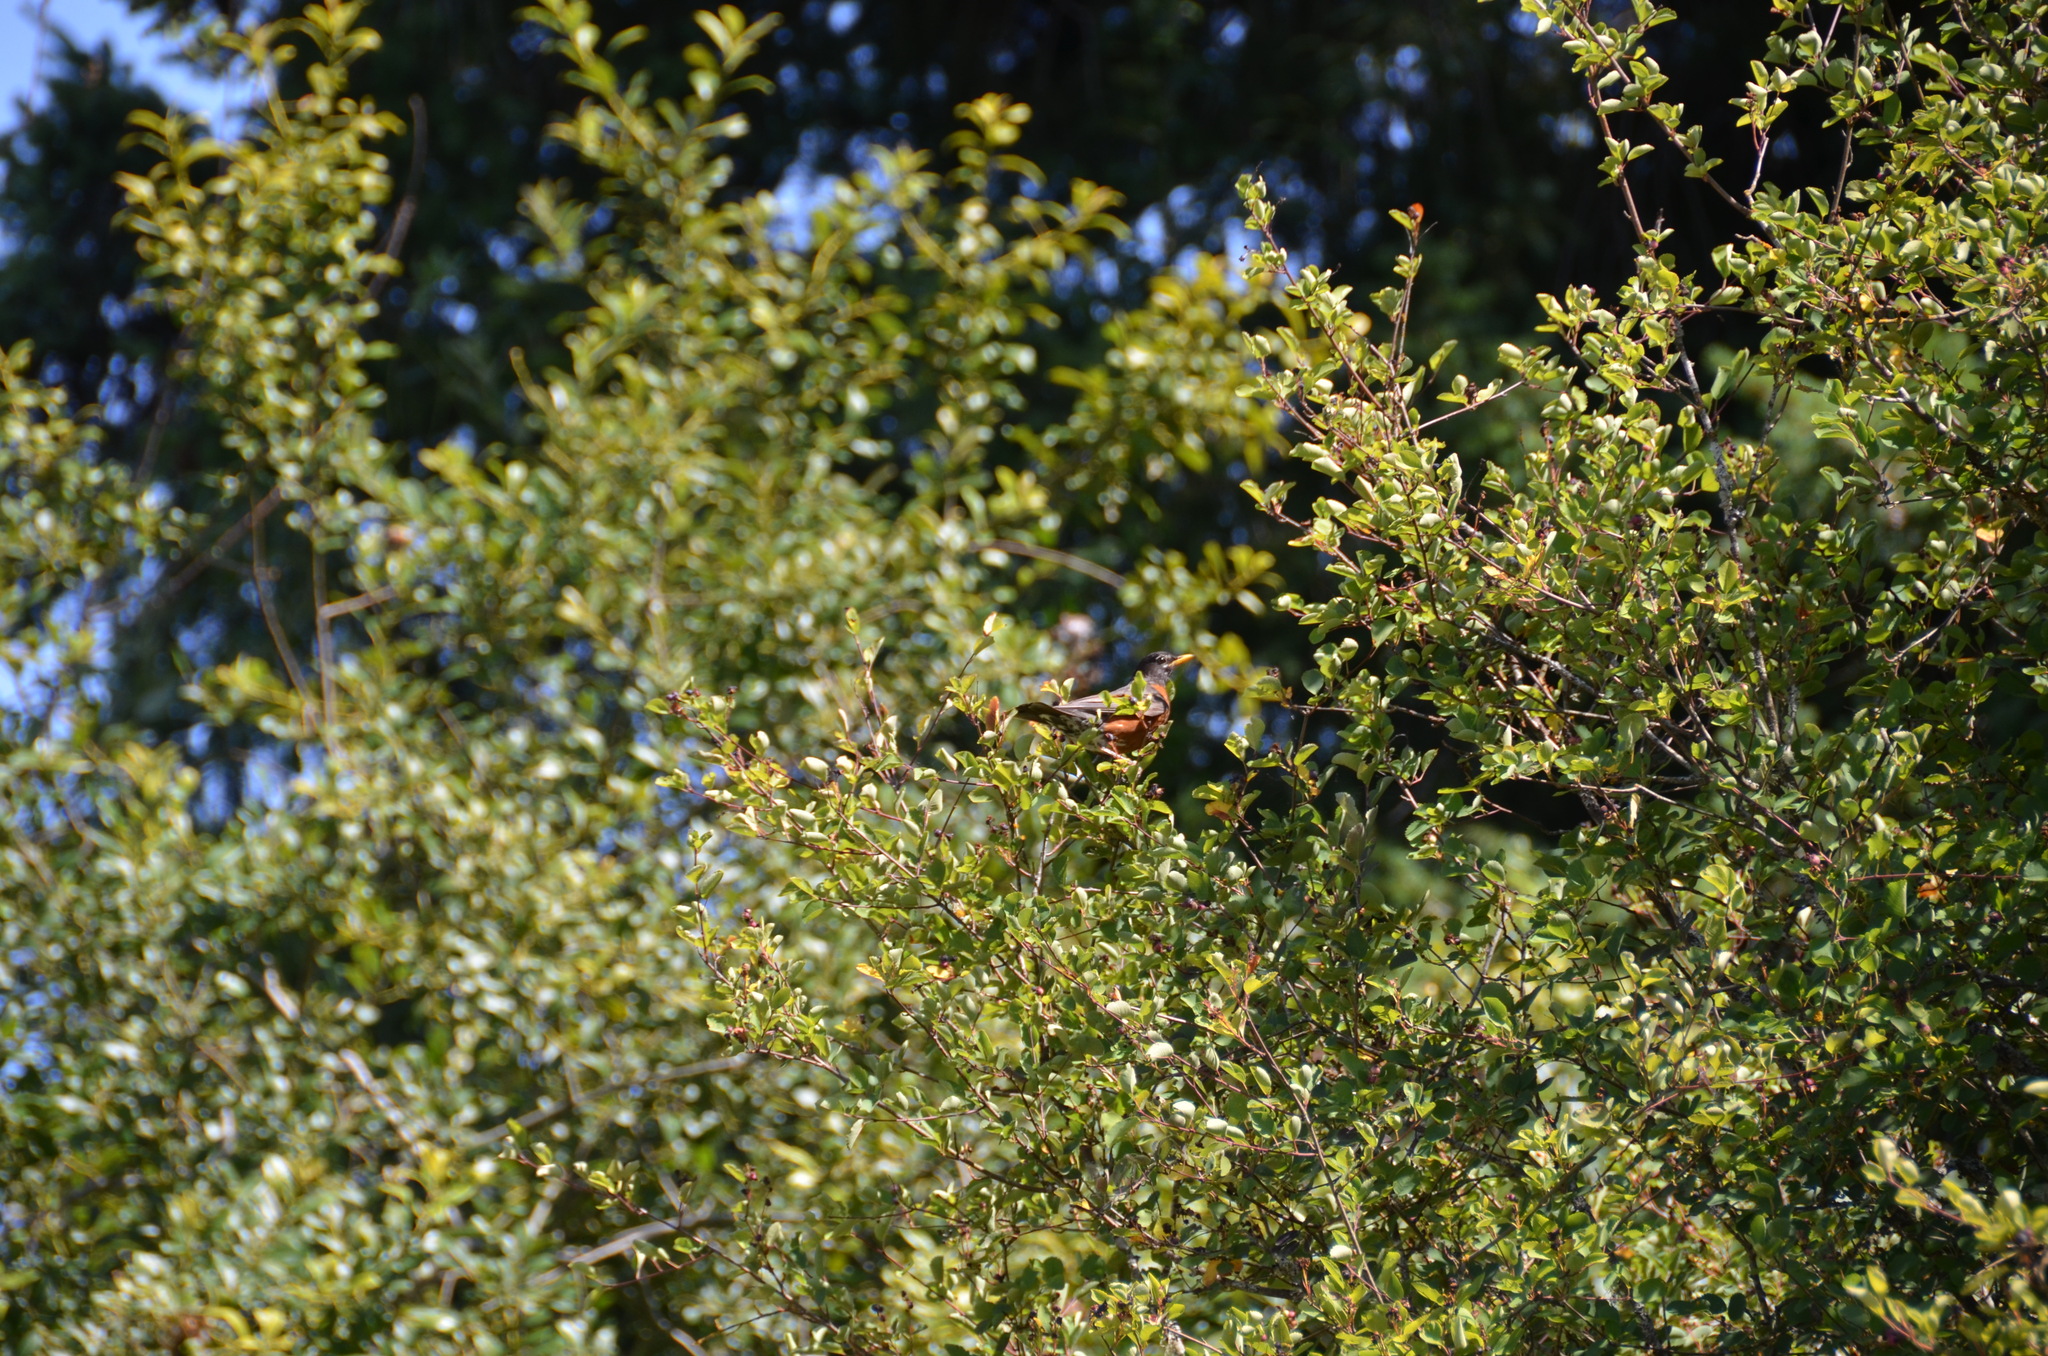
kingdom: Animalia
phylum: Chordata
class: Aves
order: Passeriformes
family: Turdidae
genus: Turdus
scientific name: Turdus migratorius
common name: American robin
